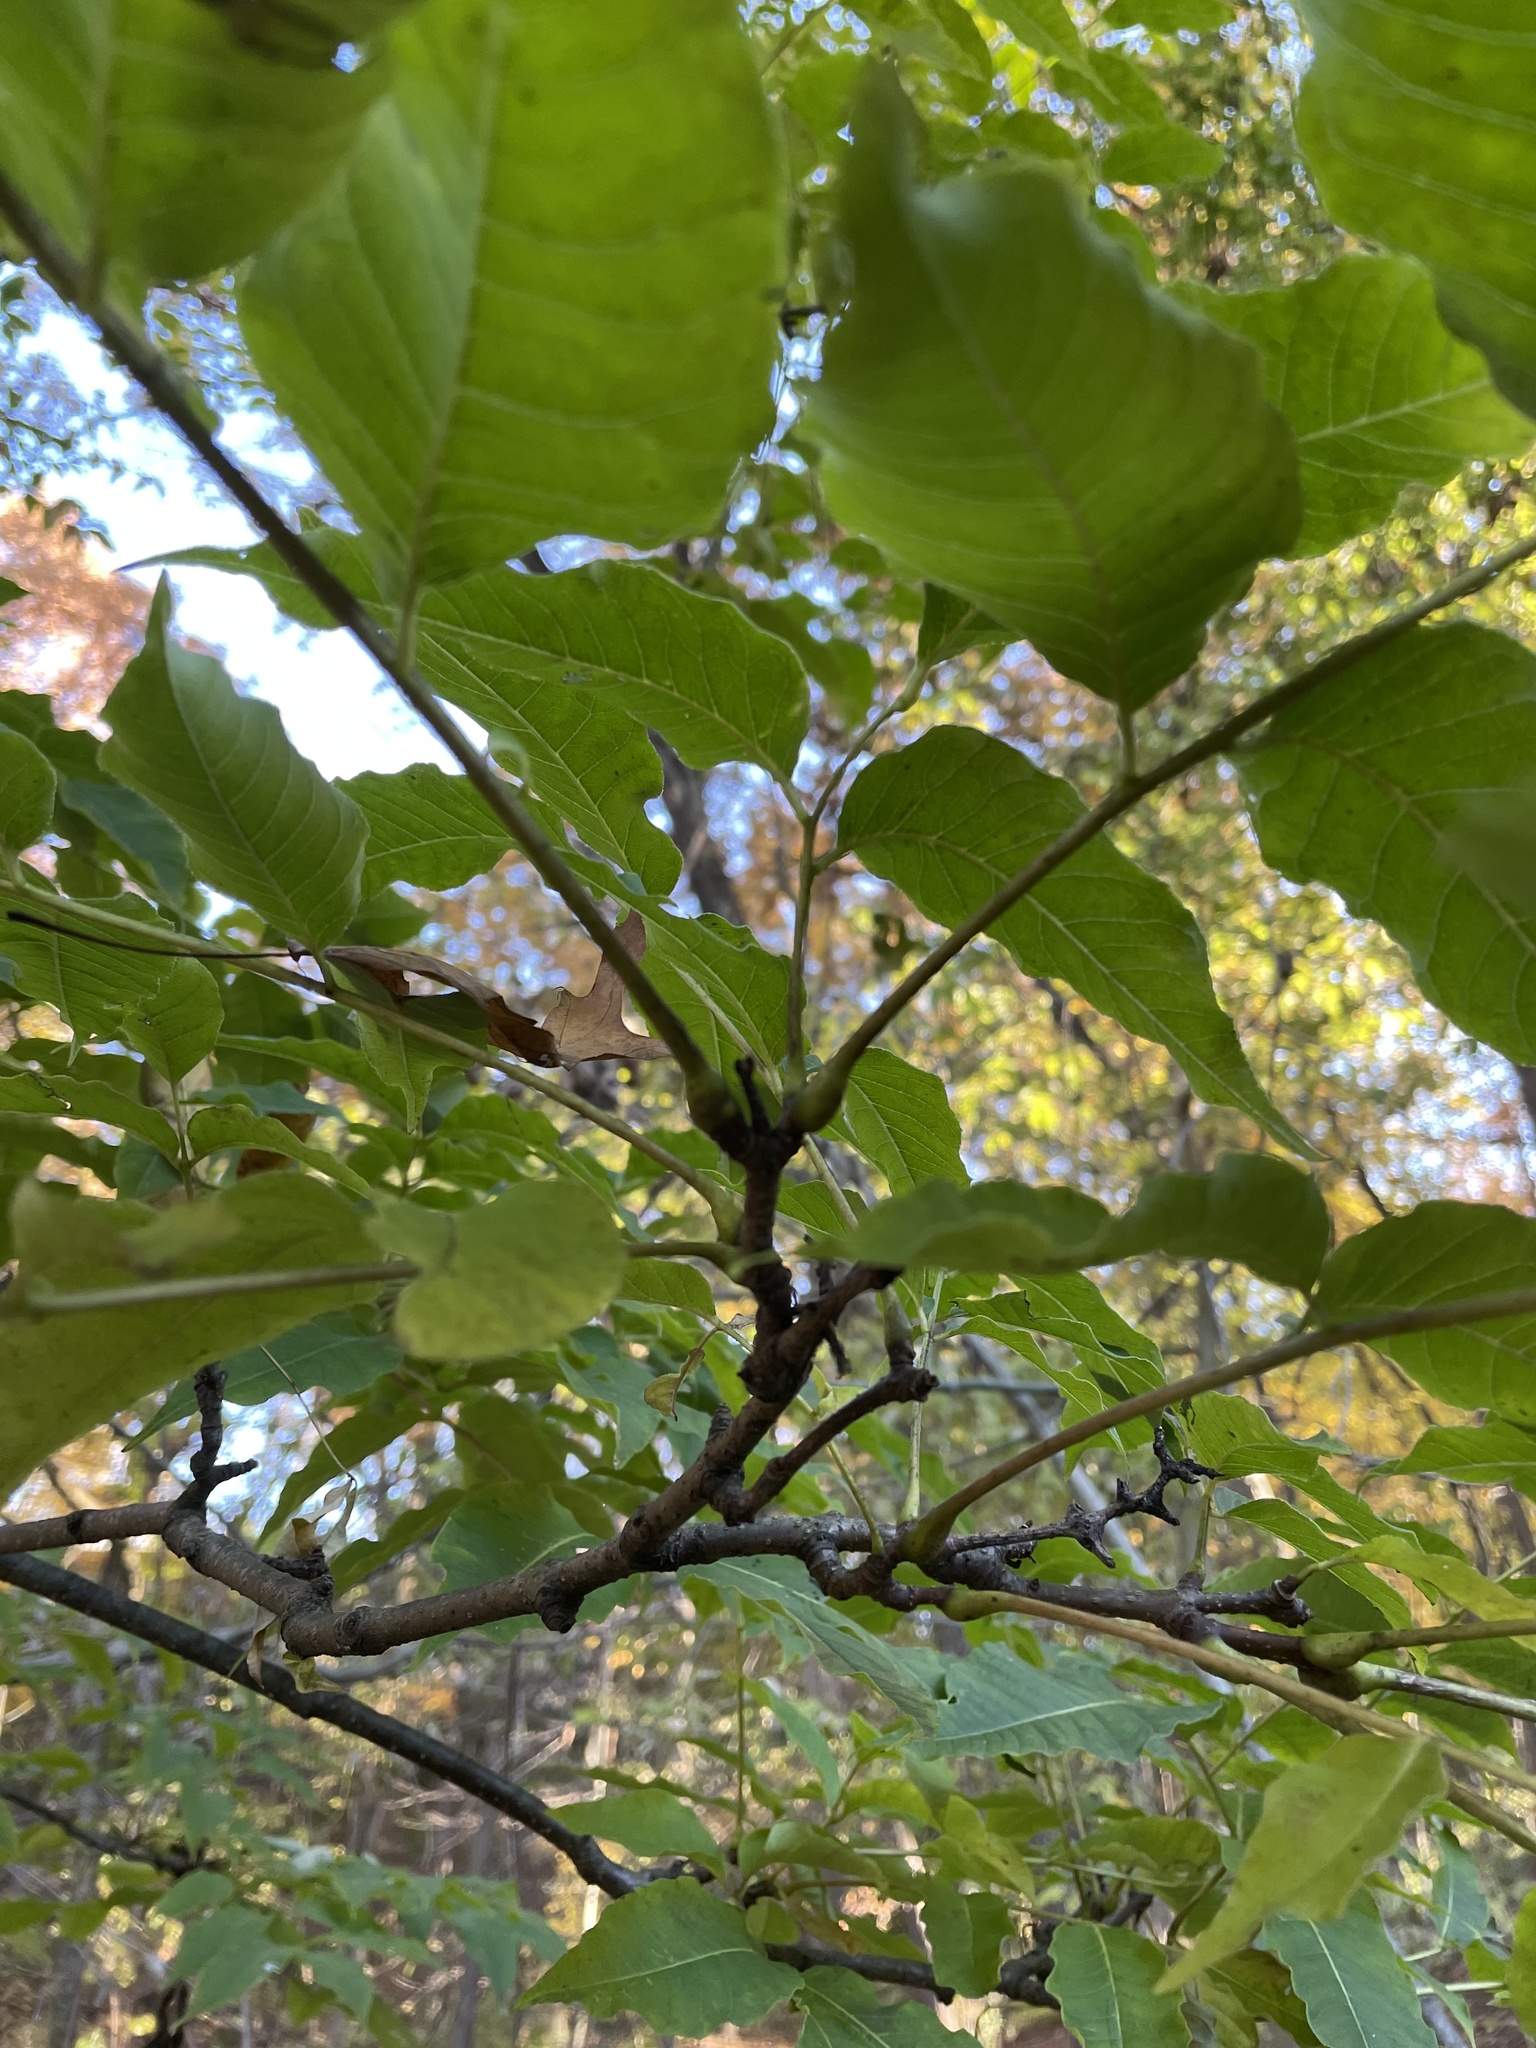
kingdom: Plantae
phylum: Tracheophyta
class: Magnoliopsida
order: Sapindales
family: Rutaceae
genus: Phellodendron
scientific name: Phellodendron amurense
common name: Amur corktree
